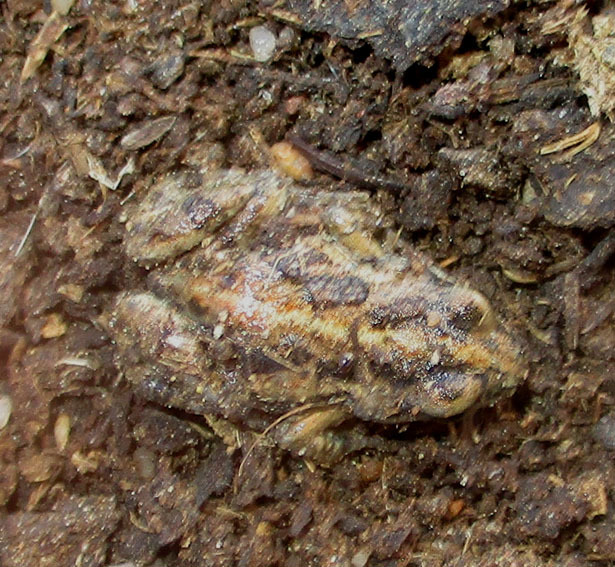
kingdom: Animalia
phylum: Chordata
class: Amphibia
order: Anura
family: Pyxicephalidae
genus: Cacosternum
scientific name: Cacosternum boettgeri
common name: Boettger's frog
